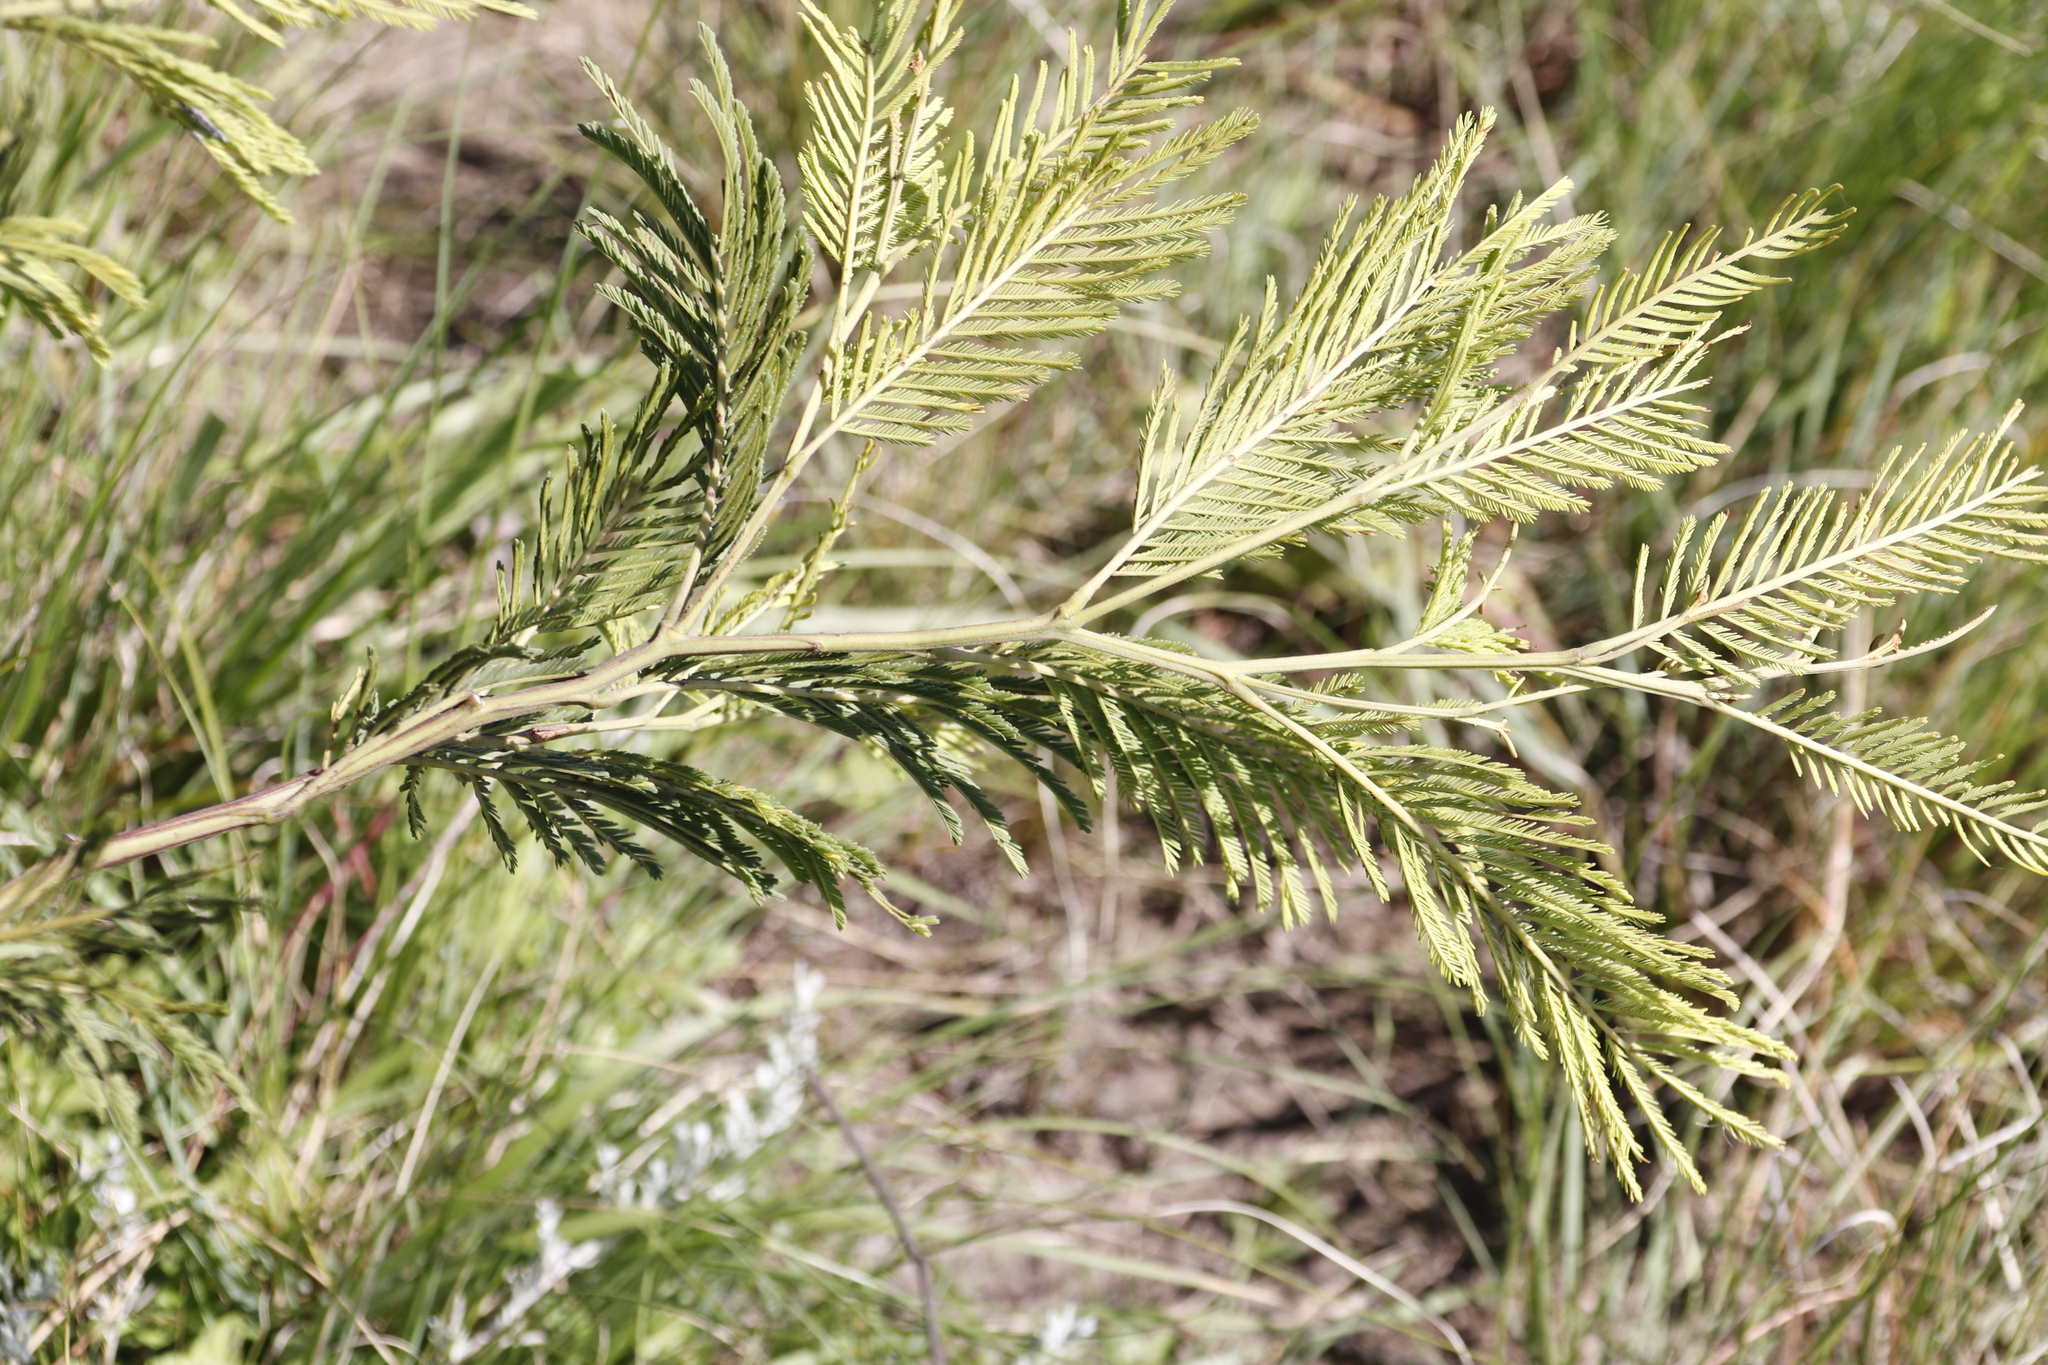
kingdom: Plantae
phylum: Tracheophyta
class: Magnoliopsida
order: Fabales
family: Fabaceae
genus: Acacia
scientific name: Acacia mearnsii
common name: Black wattle
